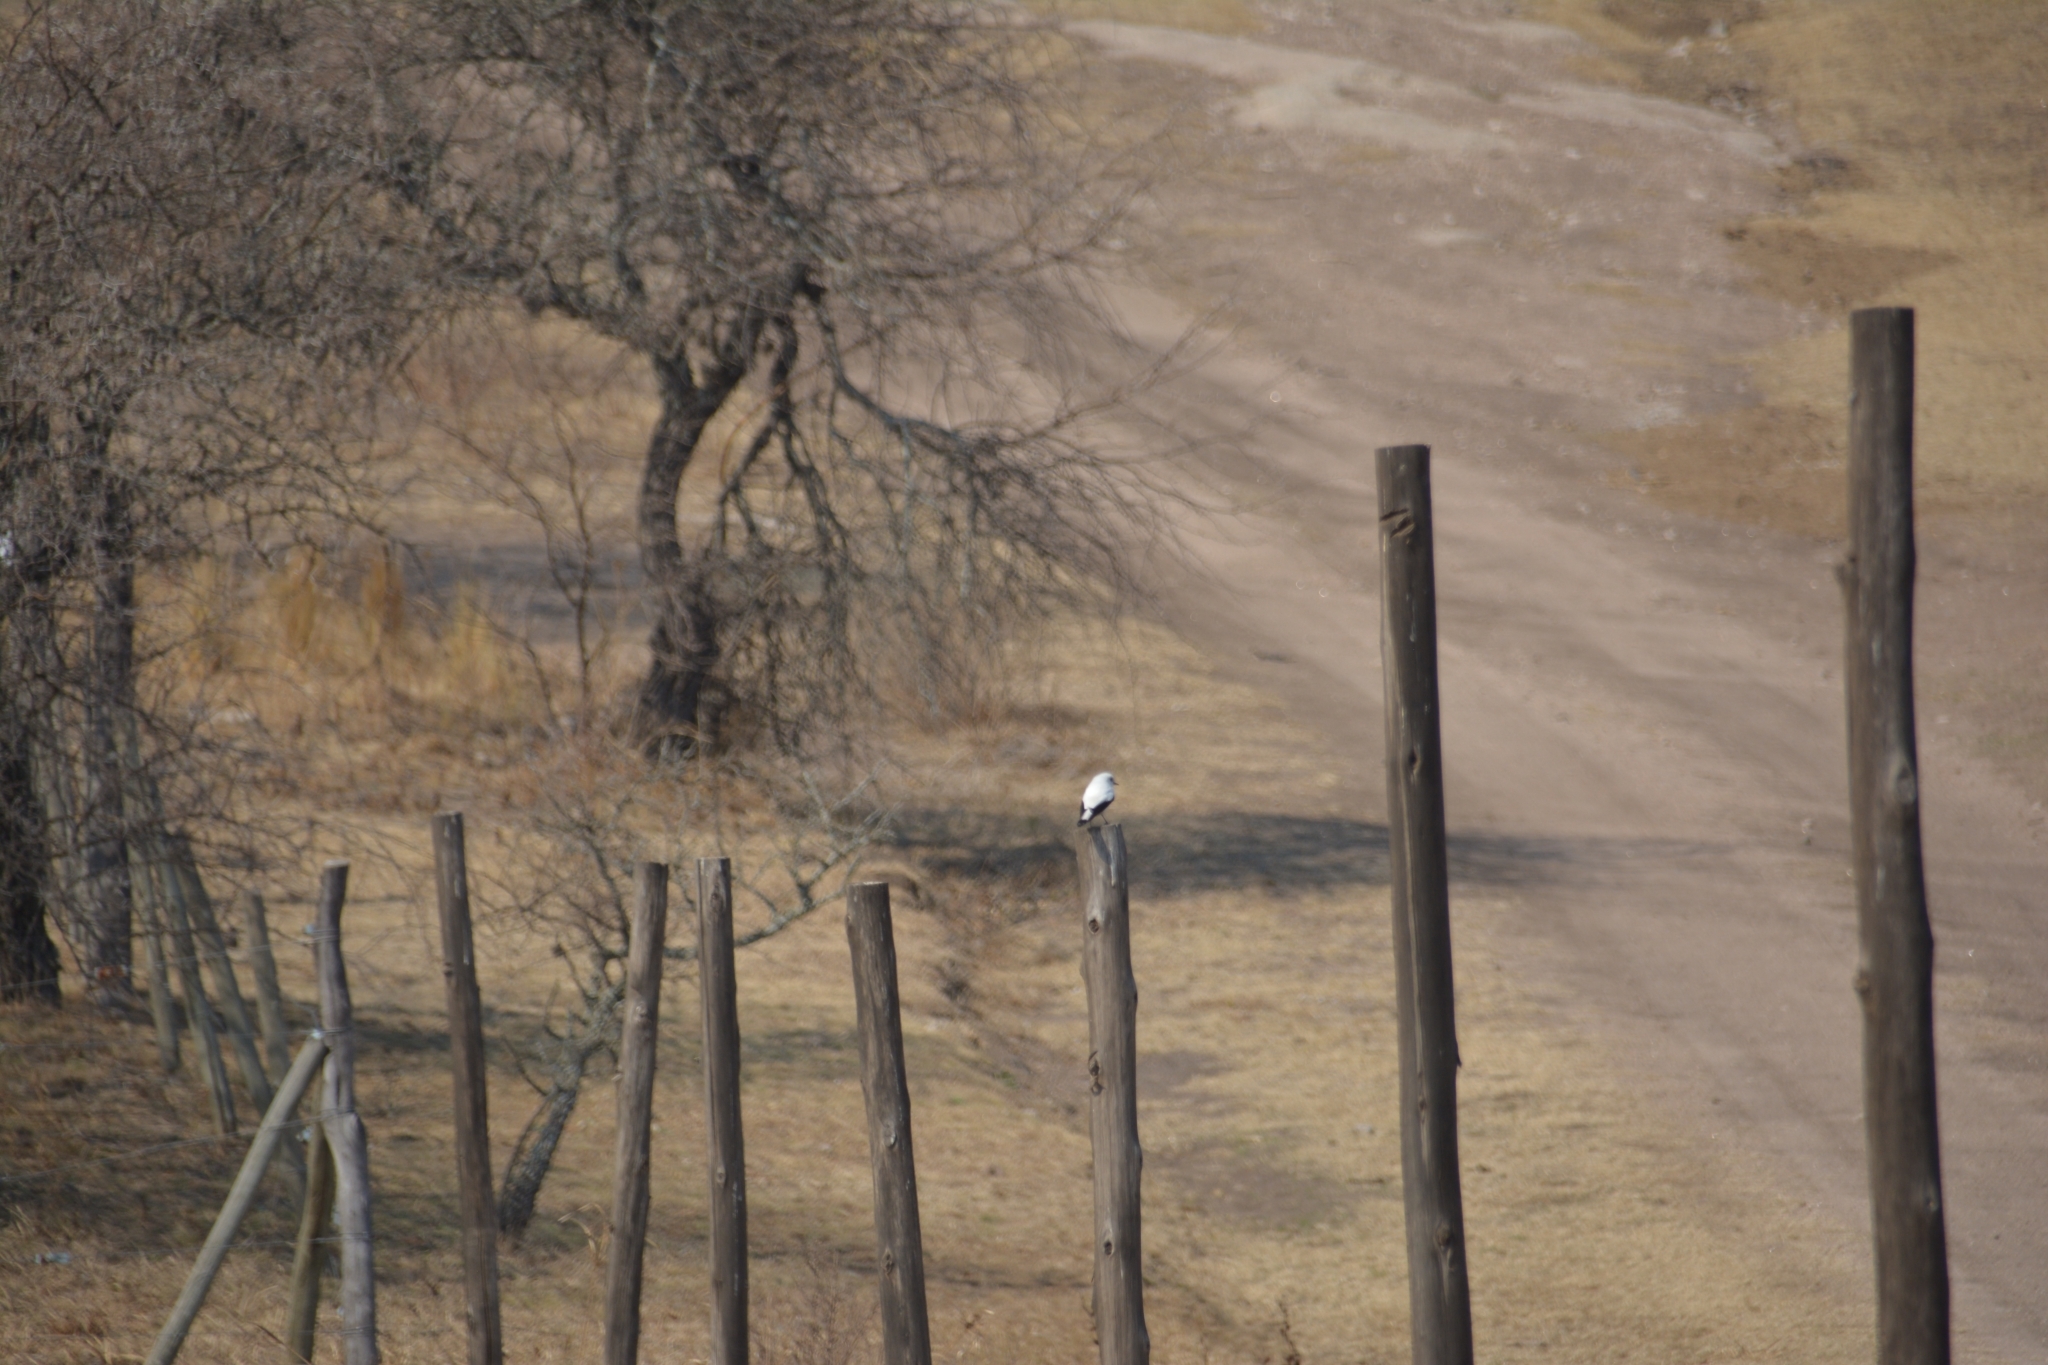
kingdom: Animalia
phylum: Chordata
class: Aves
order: Passeriformes
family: Tyrannidae
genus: Xolmis
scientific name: Xolmis irupero
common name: White monjita
